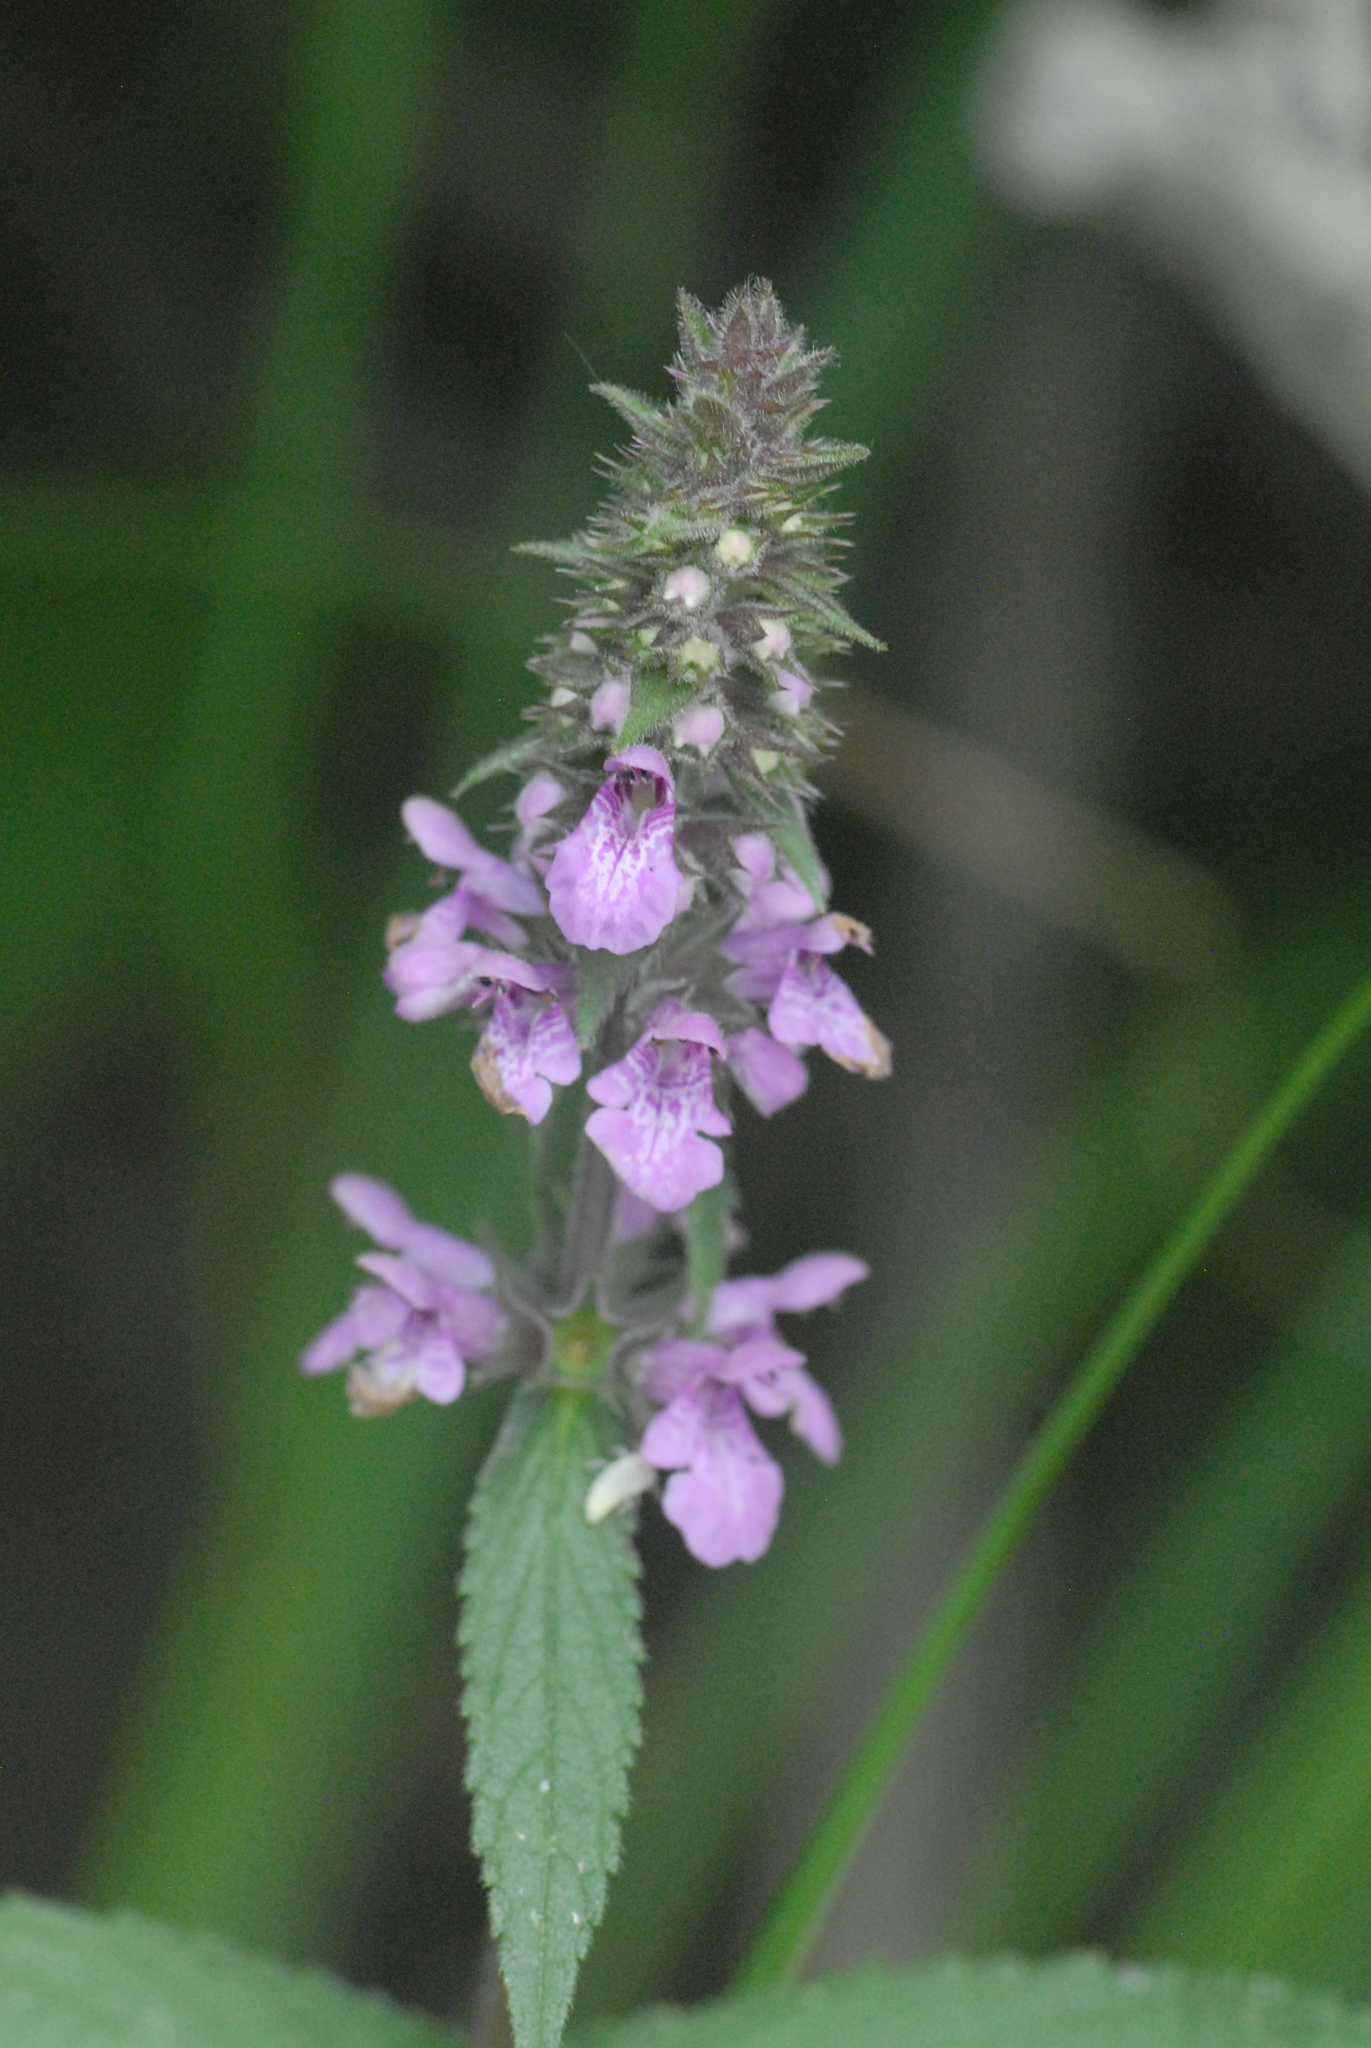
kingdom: Plantae
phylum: Tracheophyta
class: Magnoliopsida
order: Lamiales
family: Lamiaceae
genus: Stachys
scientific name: Stachys palustris
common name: Marsh woundwort
